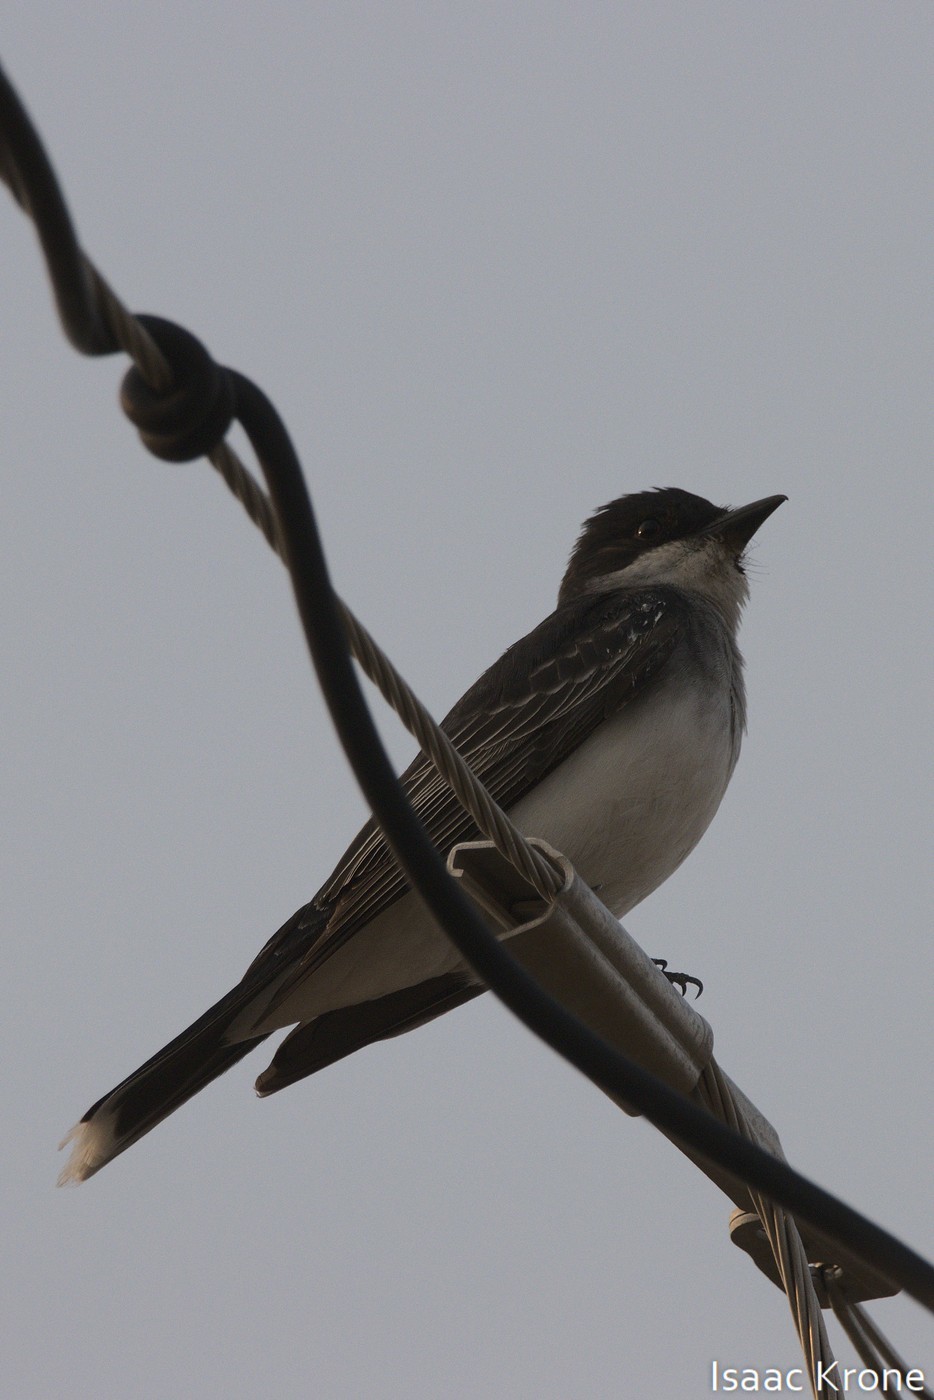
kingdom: Animalia
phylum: Chordata
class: Aves
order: Passeriformes
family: Tyrannidae
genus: Tyrannus
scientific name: Tyrannus tyrannus
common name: Eastern kingbird
